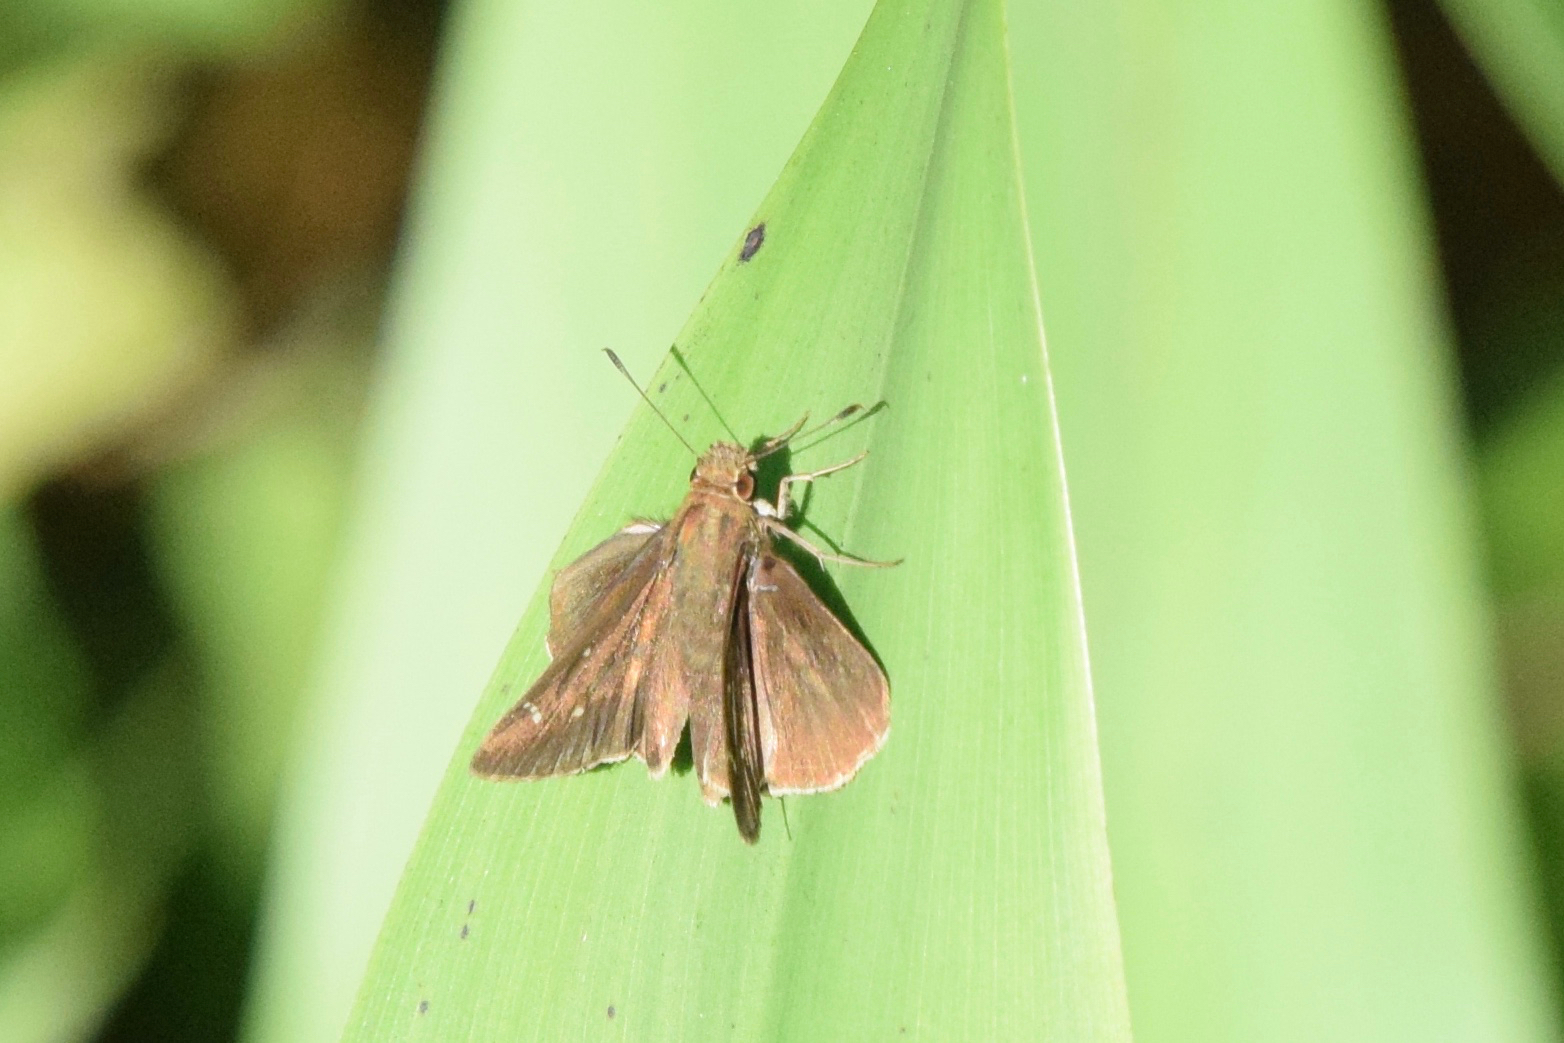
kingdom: Animalia
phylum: Arthropoda
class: Insecta
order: Lepidoptera
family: Hesperiidae
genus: Lerodea
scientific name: Lerodea eufala
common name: Eufala skipper
